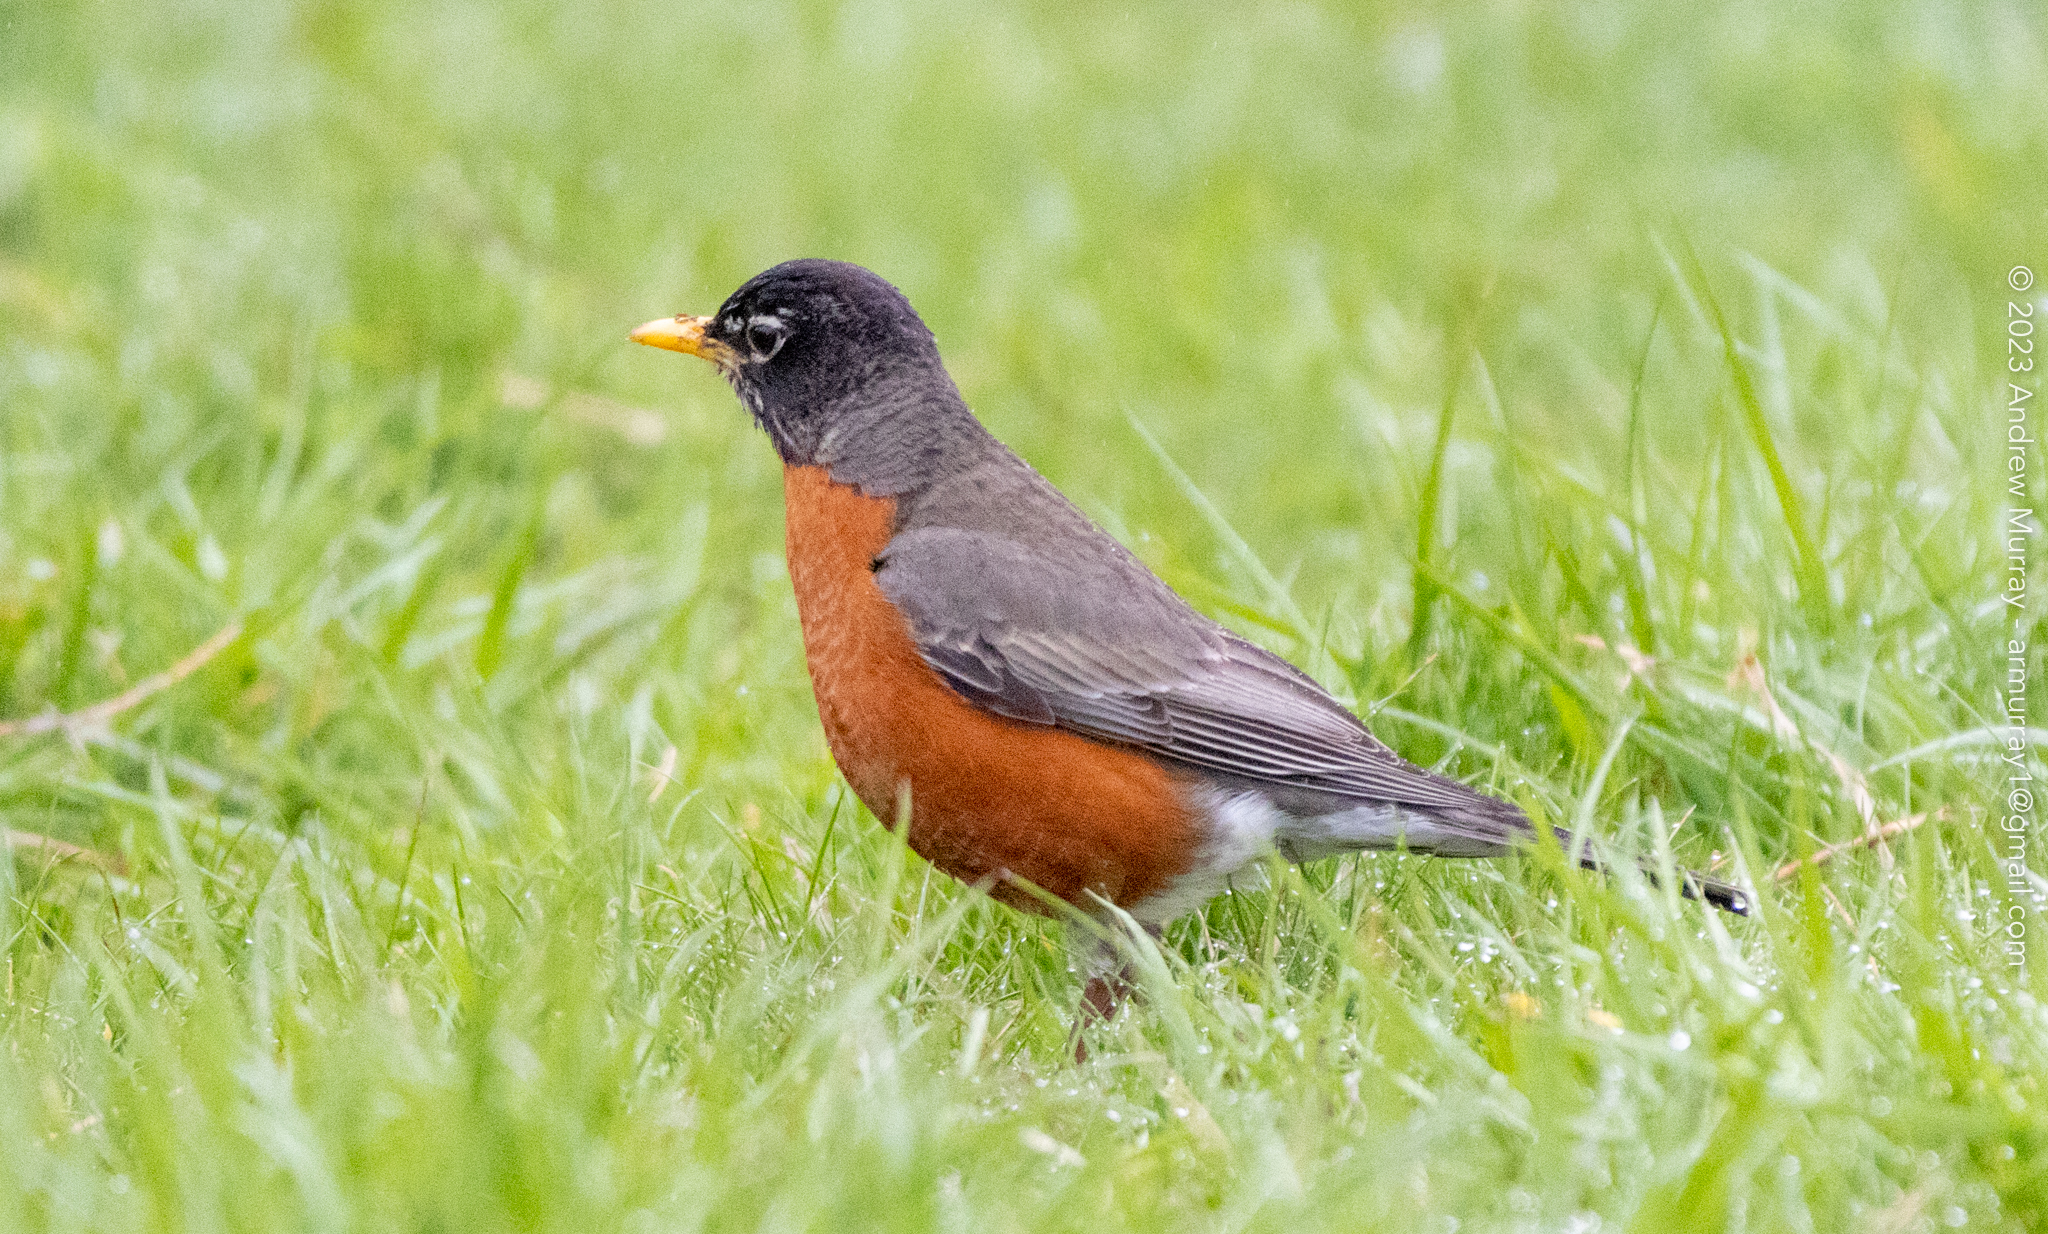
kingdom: Animalia
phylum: Chordata
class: Aves
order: Passeriformes
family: Turdidae
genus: Turdus
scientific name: Turdus migratorius
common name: American robin
